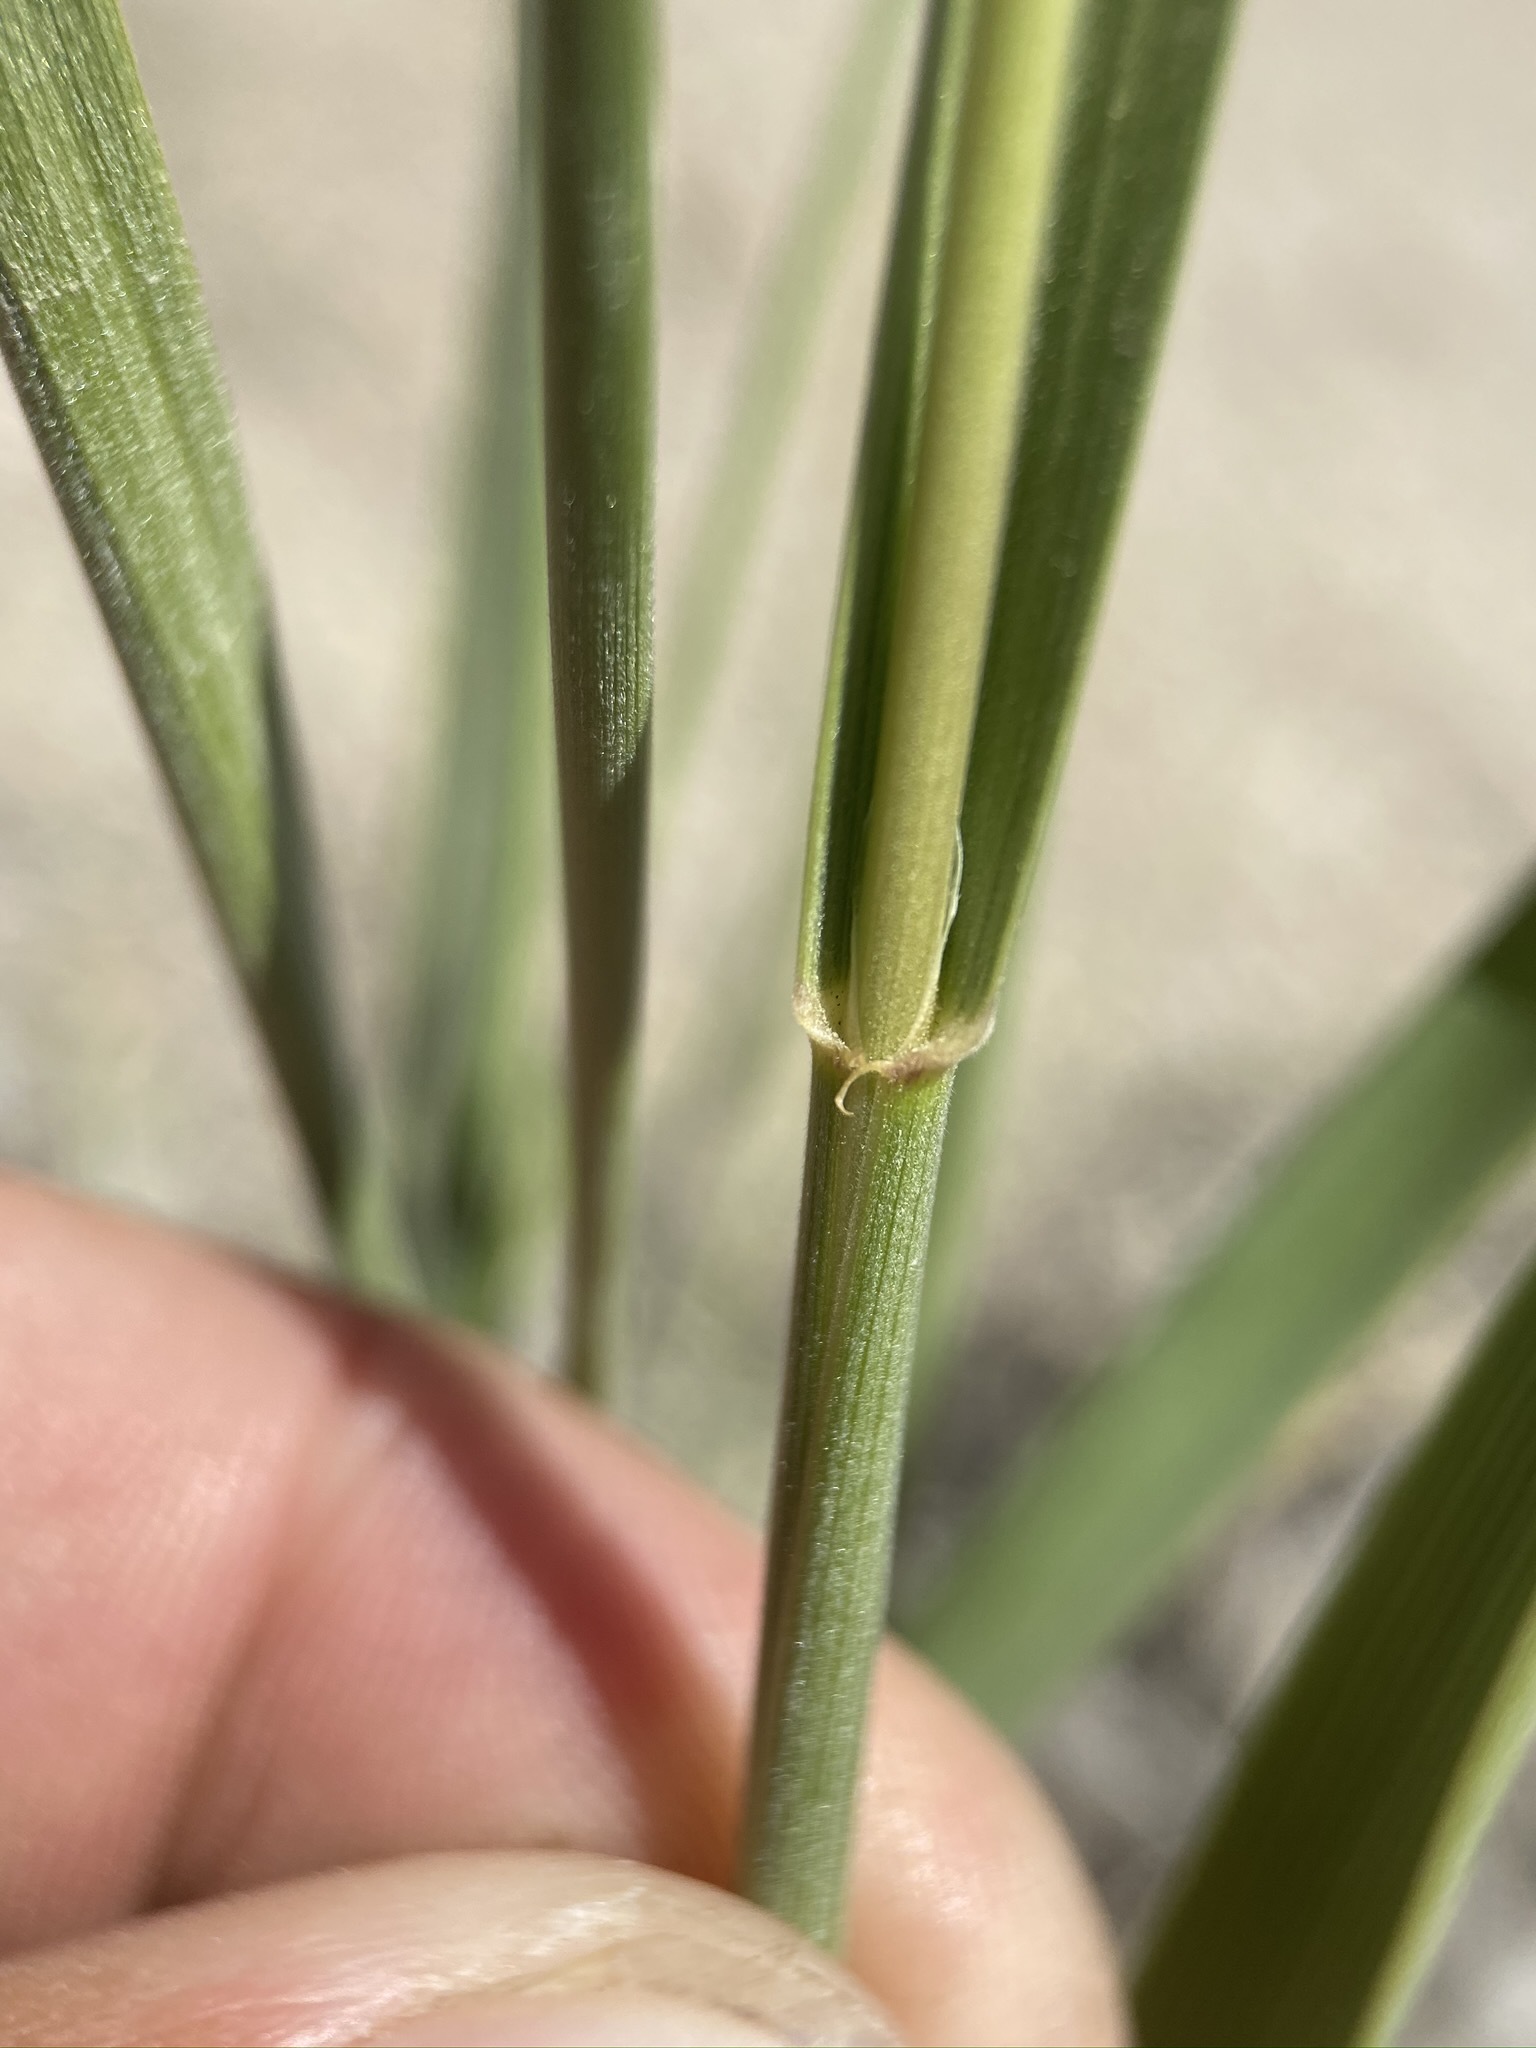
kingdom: Plantae
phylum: Tracheophyta
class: Liliopsida
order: Poales
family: Poaceae
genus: Leymus
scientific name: Leymus cinereus
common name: Basin wild rye
